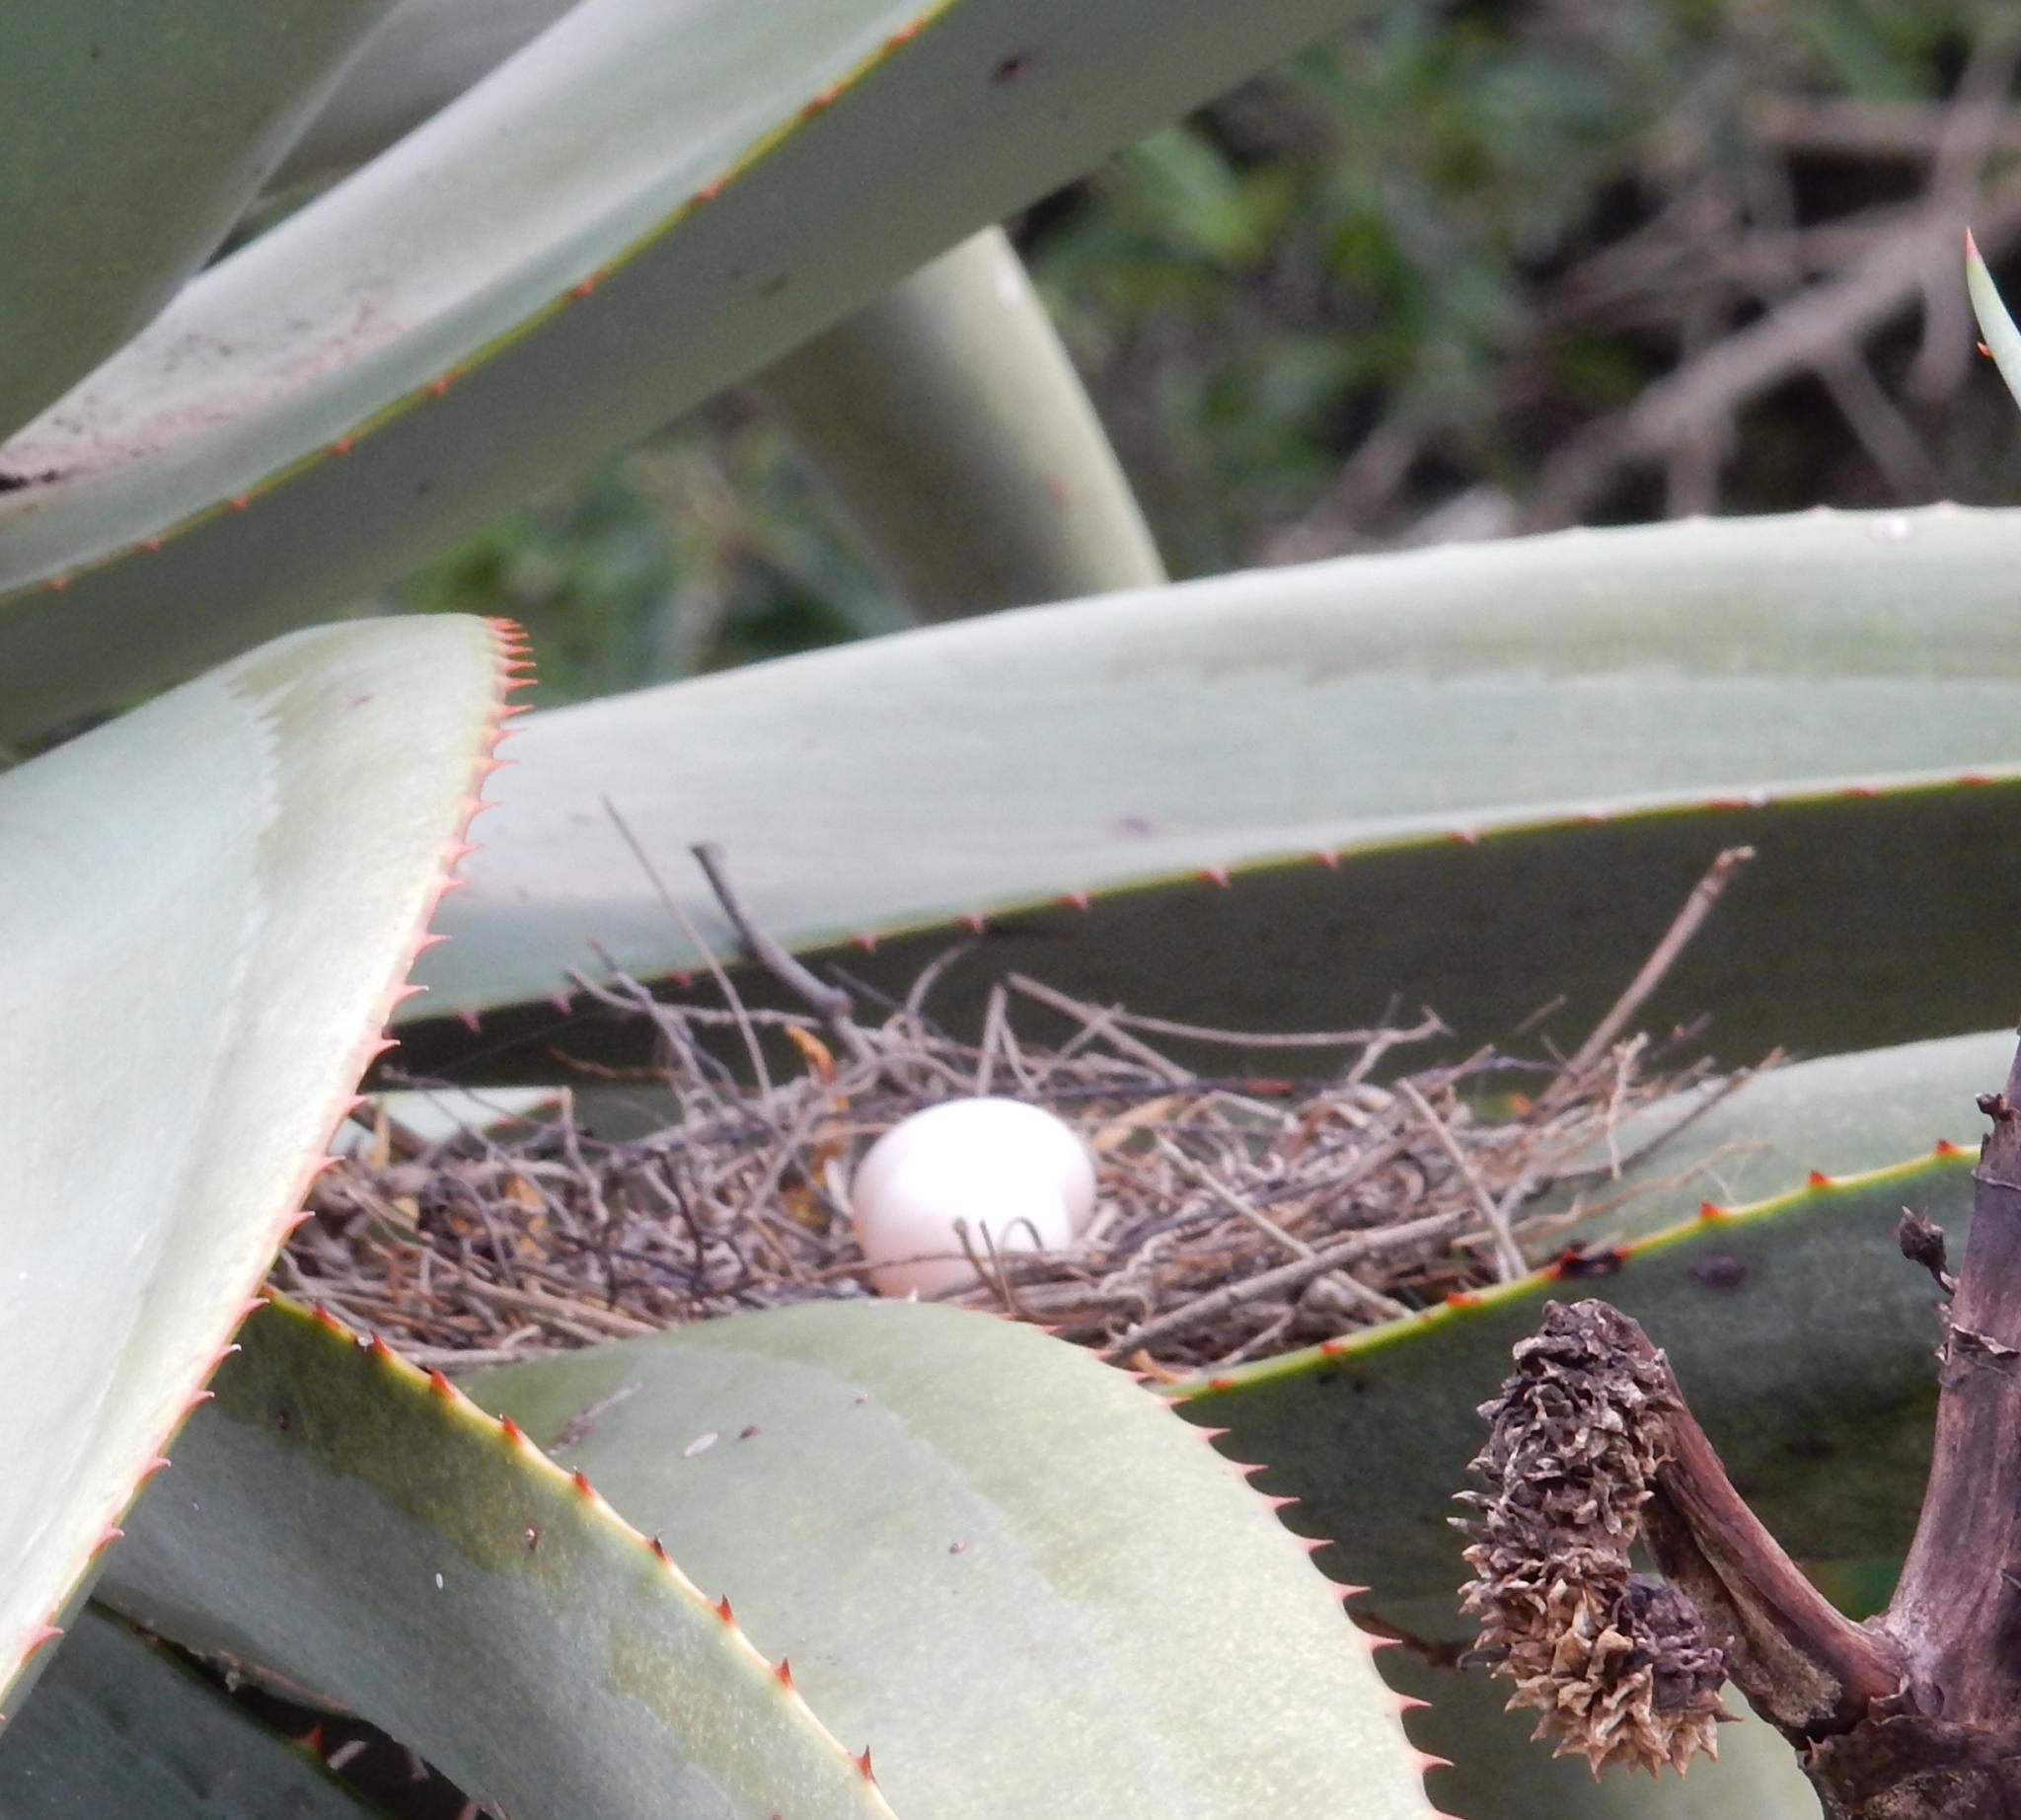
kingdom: Animalia
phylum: Chordata
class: Aves
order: Columbiformes
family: Columbidae
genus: Spilopelia
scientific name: Spilopelia senegalensis
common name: Laughing dove
